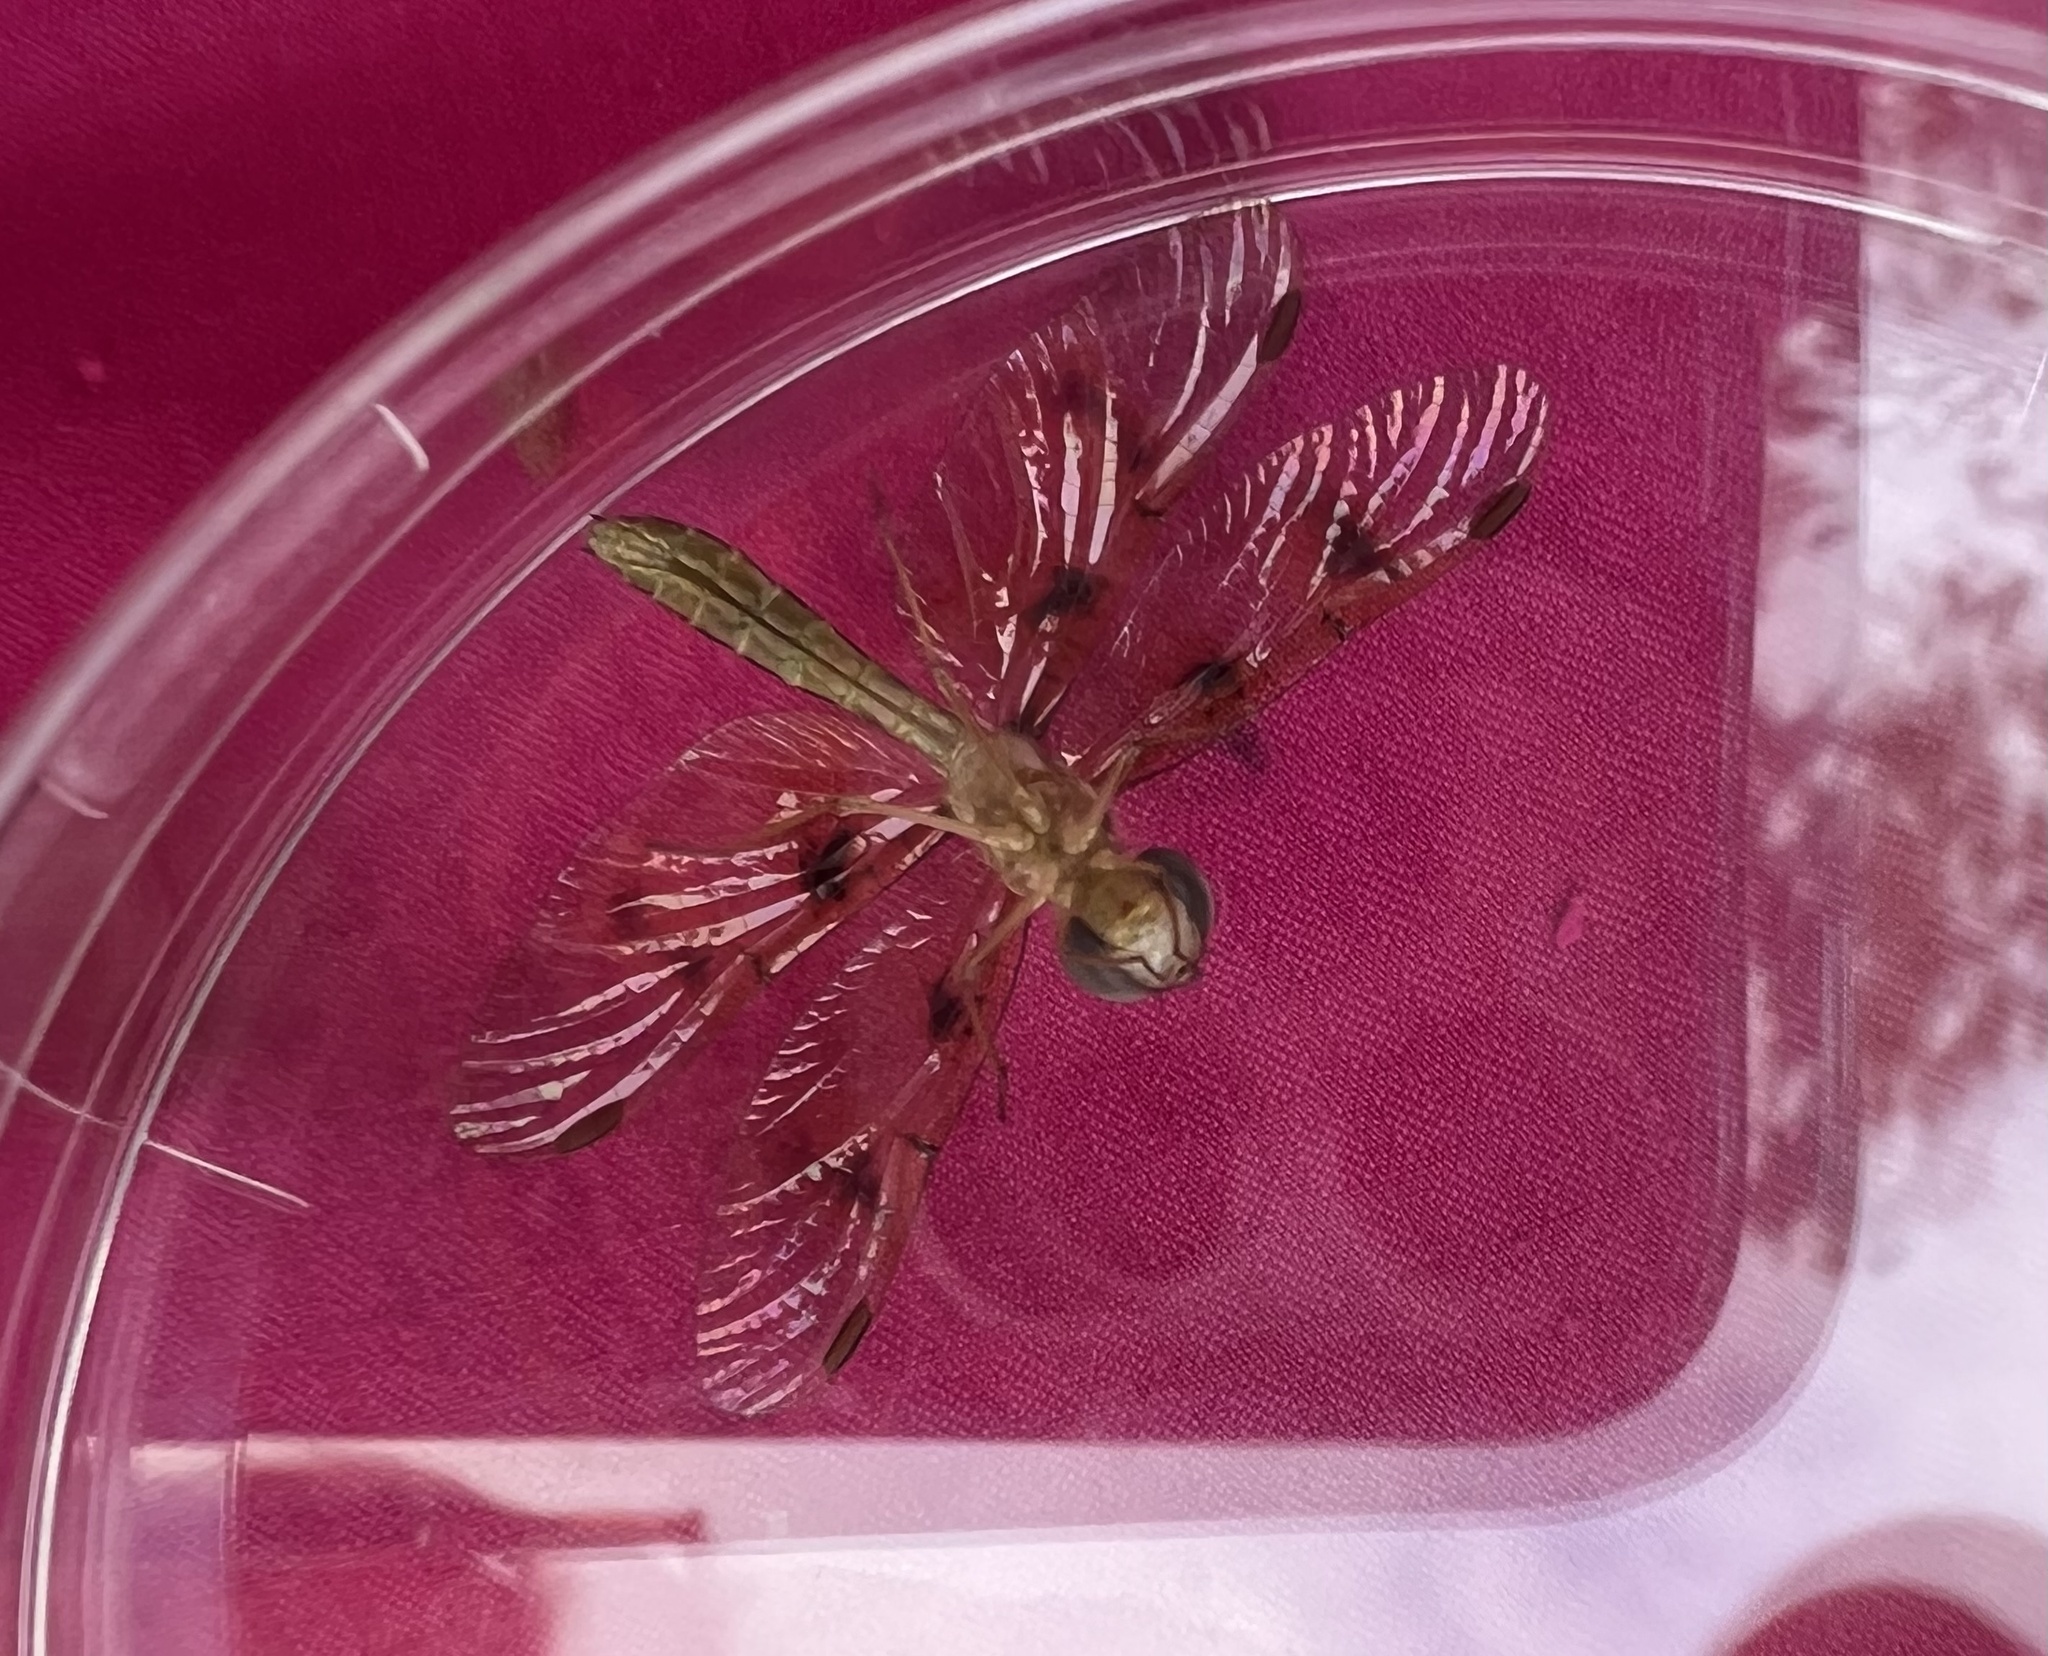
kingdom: Animalia
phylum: Arthropoda
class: Insecta
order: Odonata
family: Libellulidae
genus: Perithemis
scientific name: Perithemis tenera
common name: Eastern amberwing
